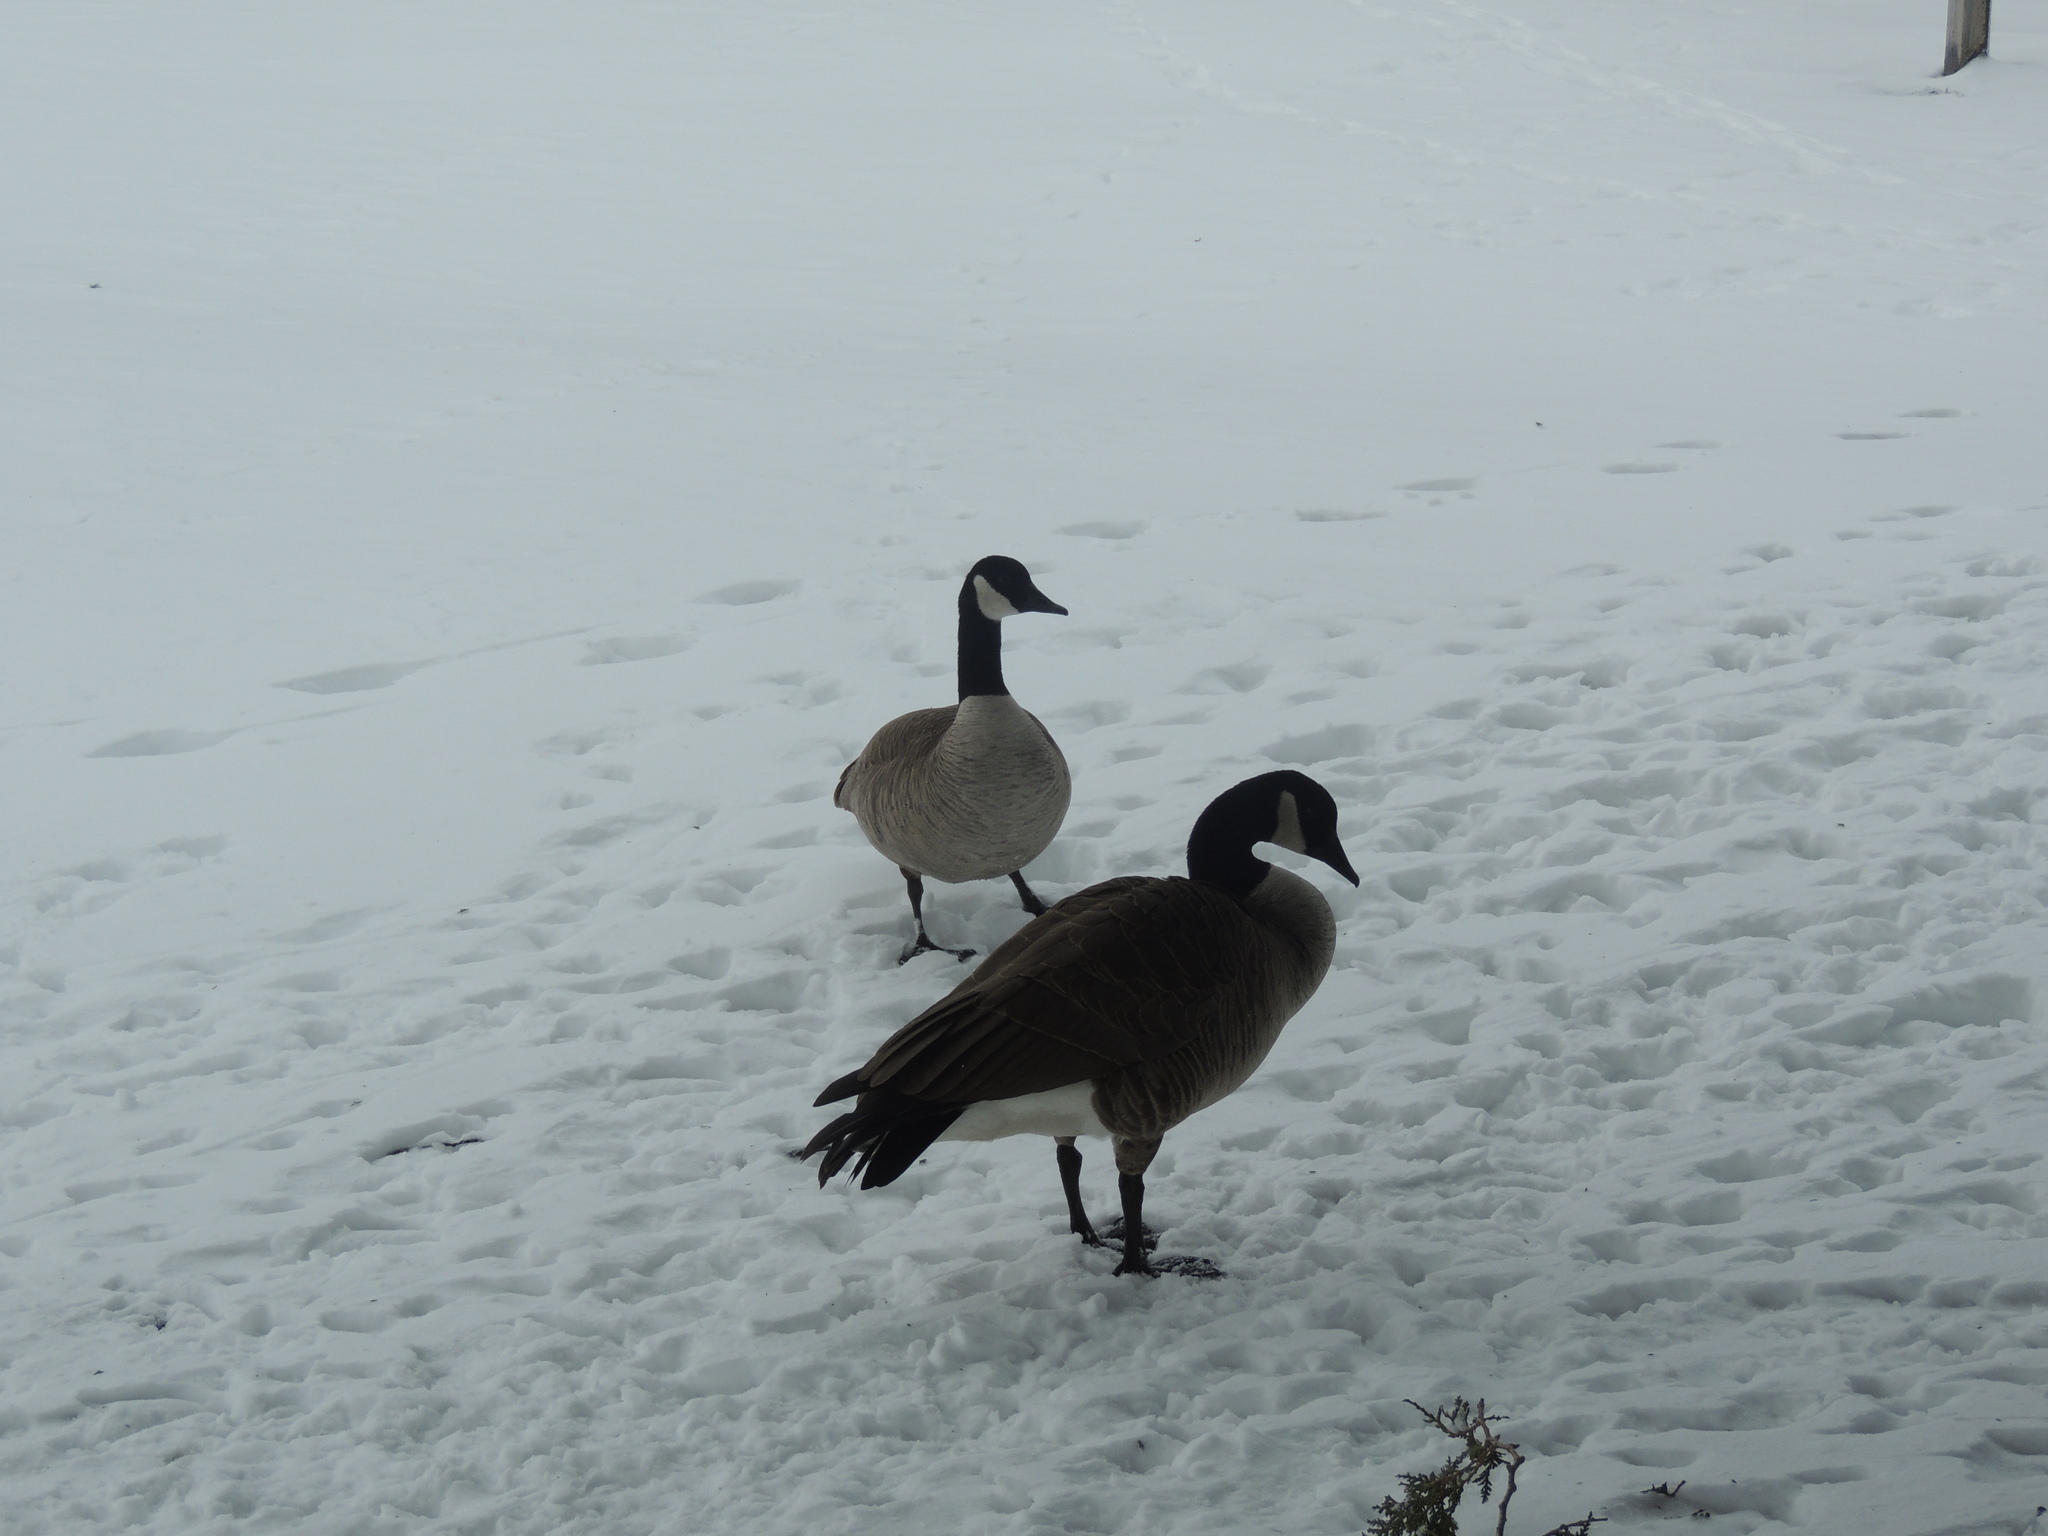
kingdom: Animalia
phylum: Chordata
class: Aves
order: Anseriformes
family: Anatidae
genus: Branta
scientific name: Branta canadensis
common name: Canada goose
